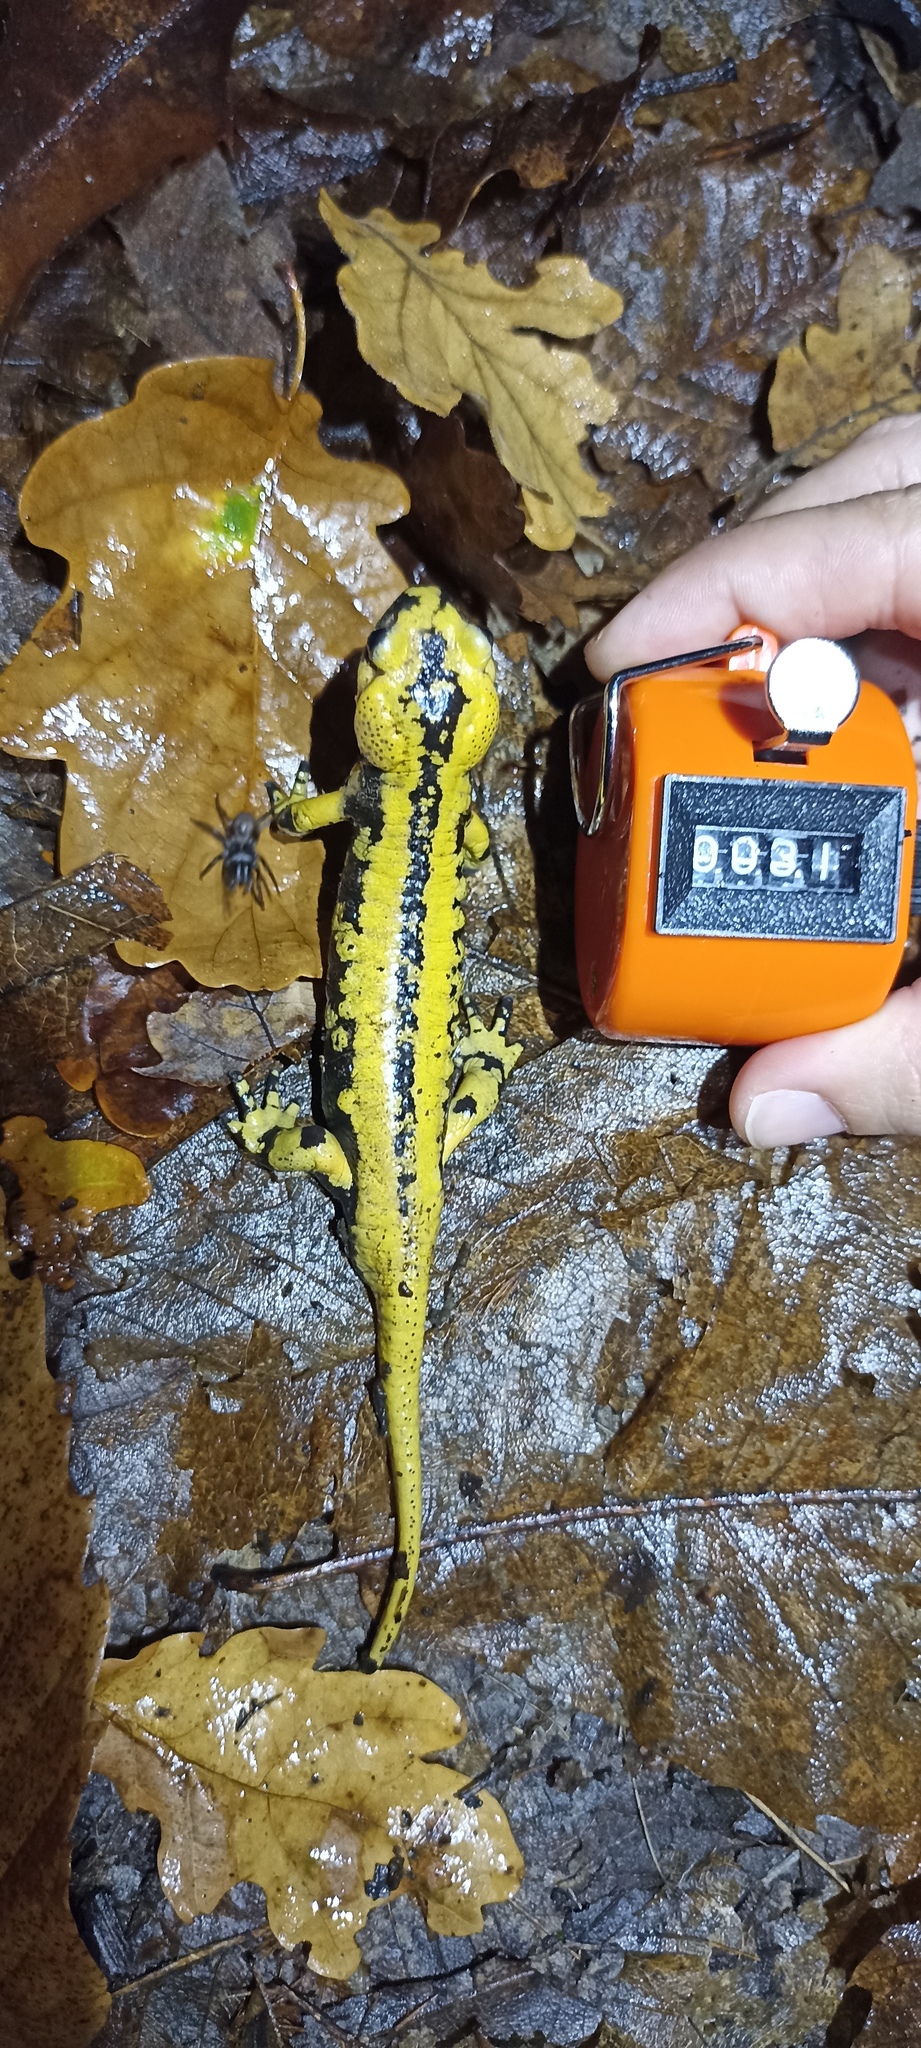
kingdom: Animalia
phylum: Chordata
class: Amphibia
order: Caudata
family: Salamandridae
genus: Salamandra
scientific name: Salamandra salamandra
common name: Fire salamander
